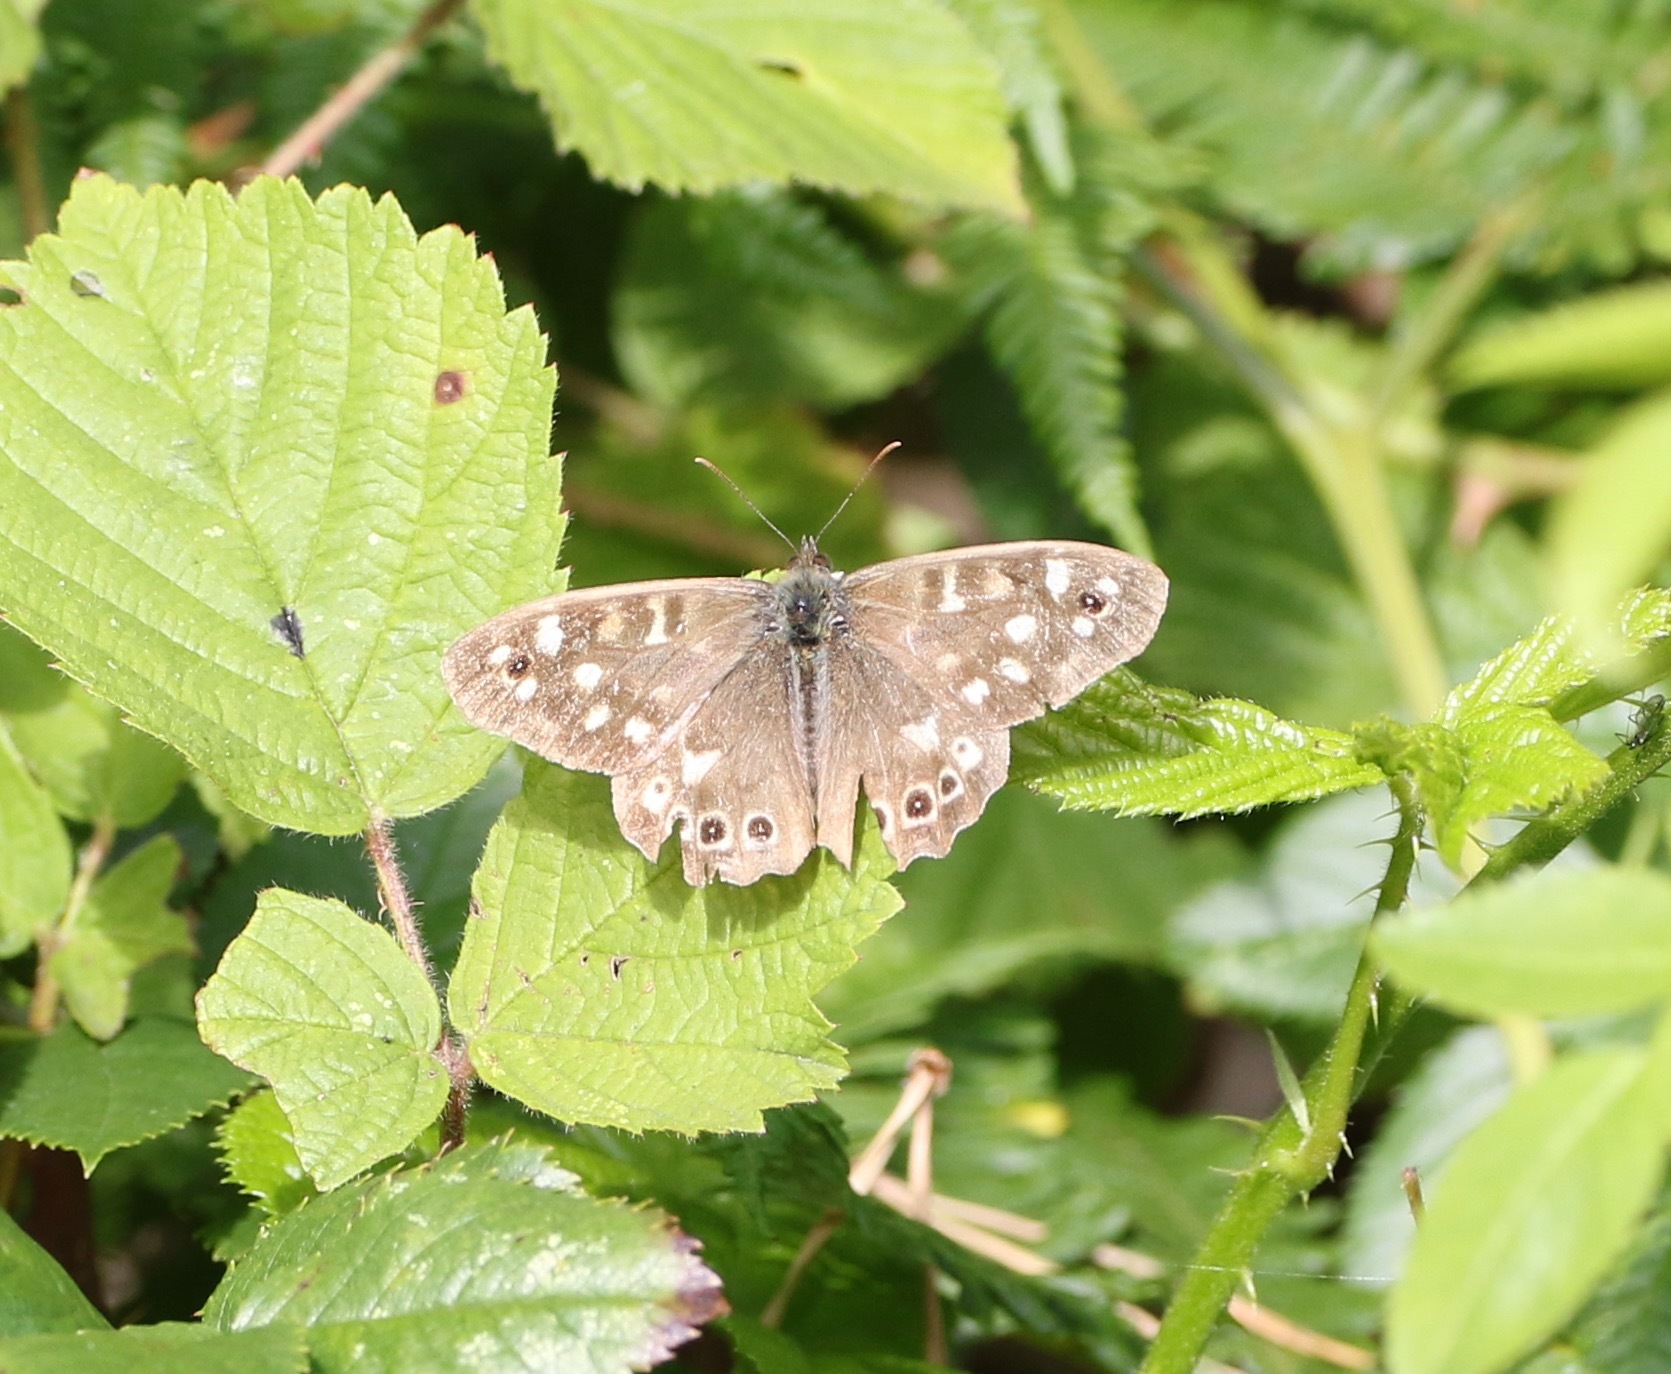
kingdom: Animalia
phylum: Arthropoda
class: Insecta
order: Lepidoptera
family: Nymphalidae
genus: Pararge
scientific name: Pararge aegeria
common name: Speckled wood
